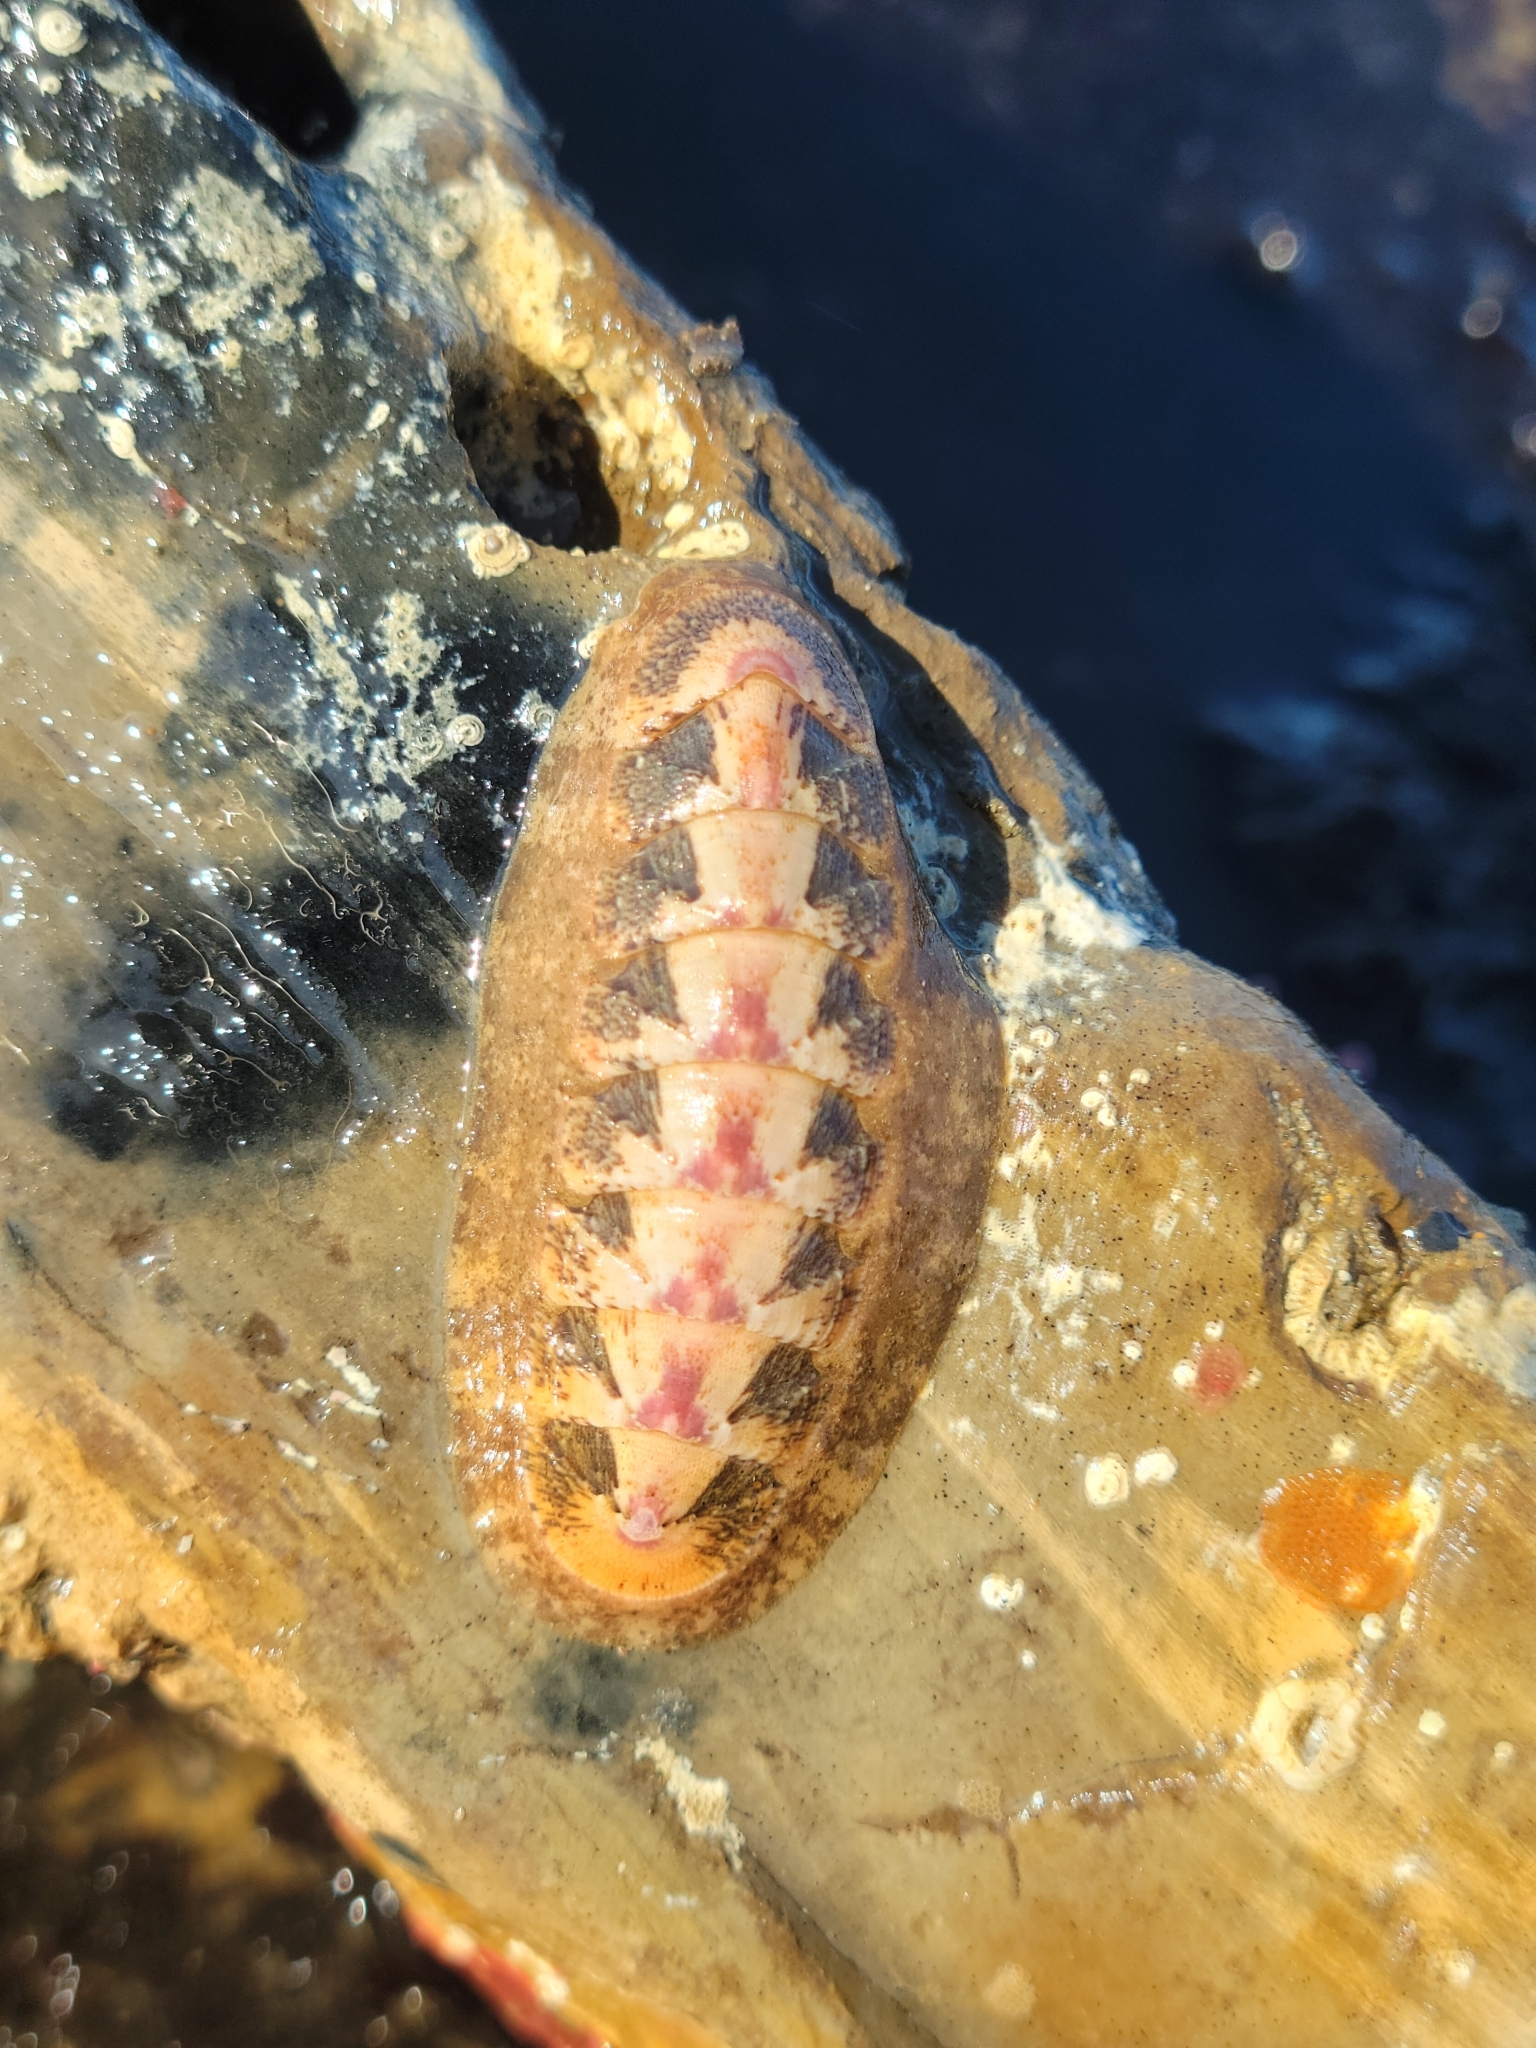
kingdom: Animalia
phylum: Mollusca
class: Polyplacophora
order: Chitonida
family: Ischnochitonidae
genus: Stenoplax
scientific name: Stenoplax heathiana
